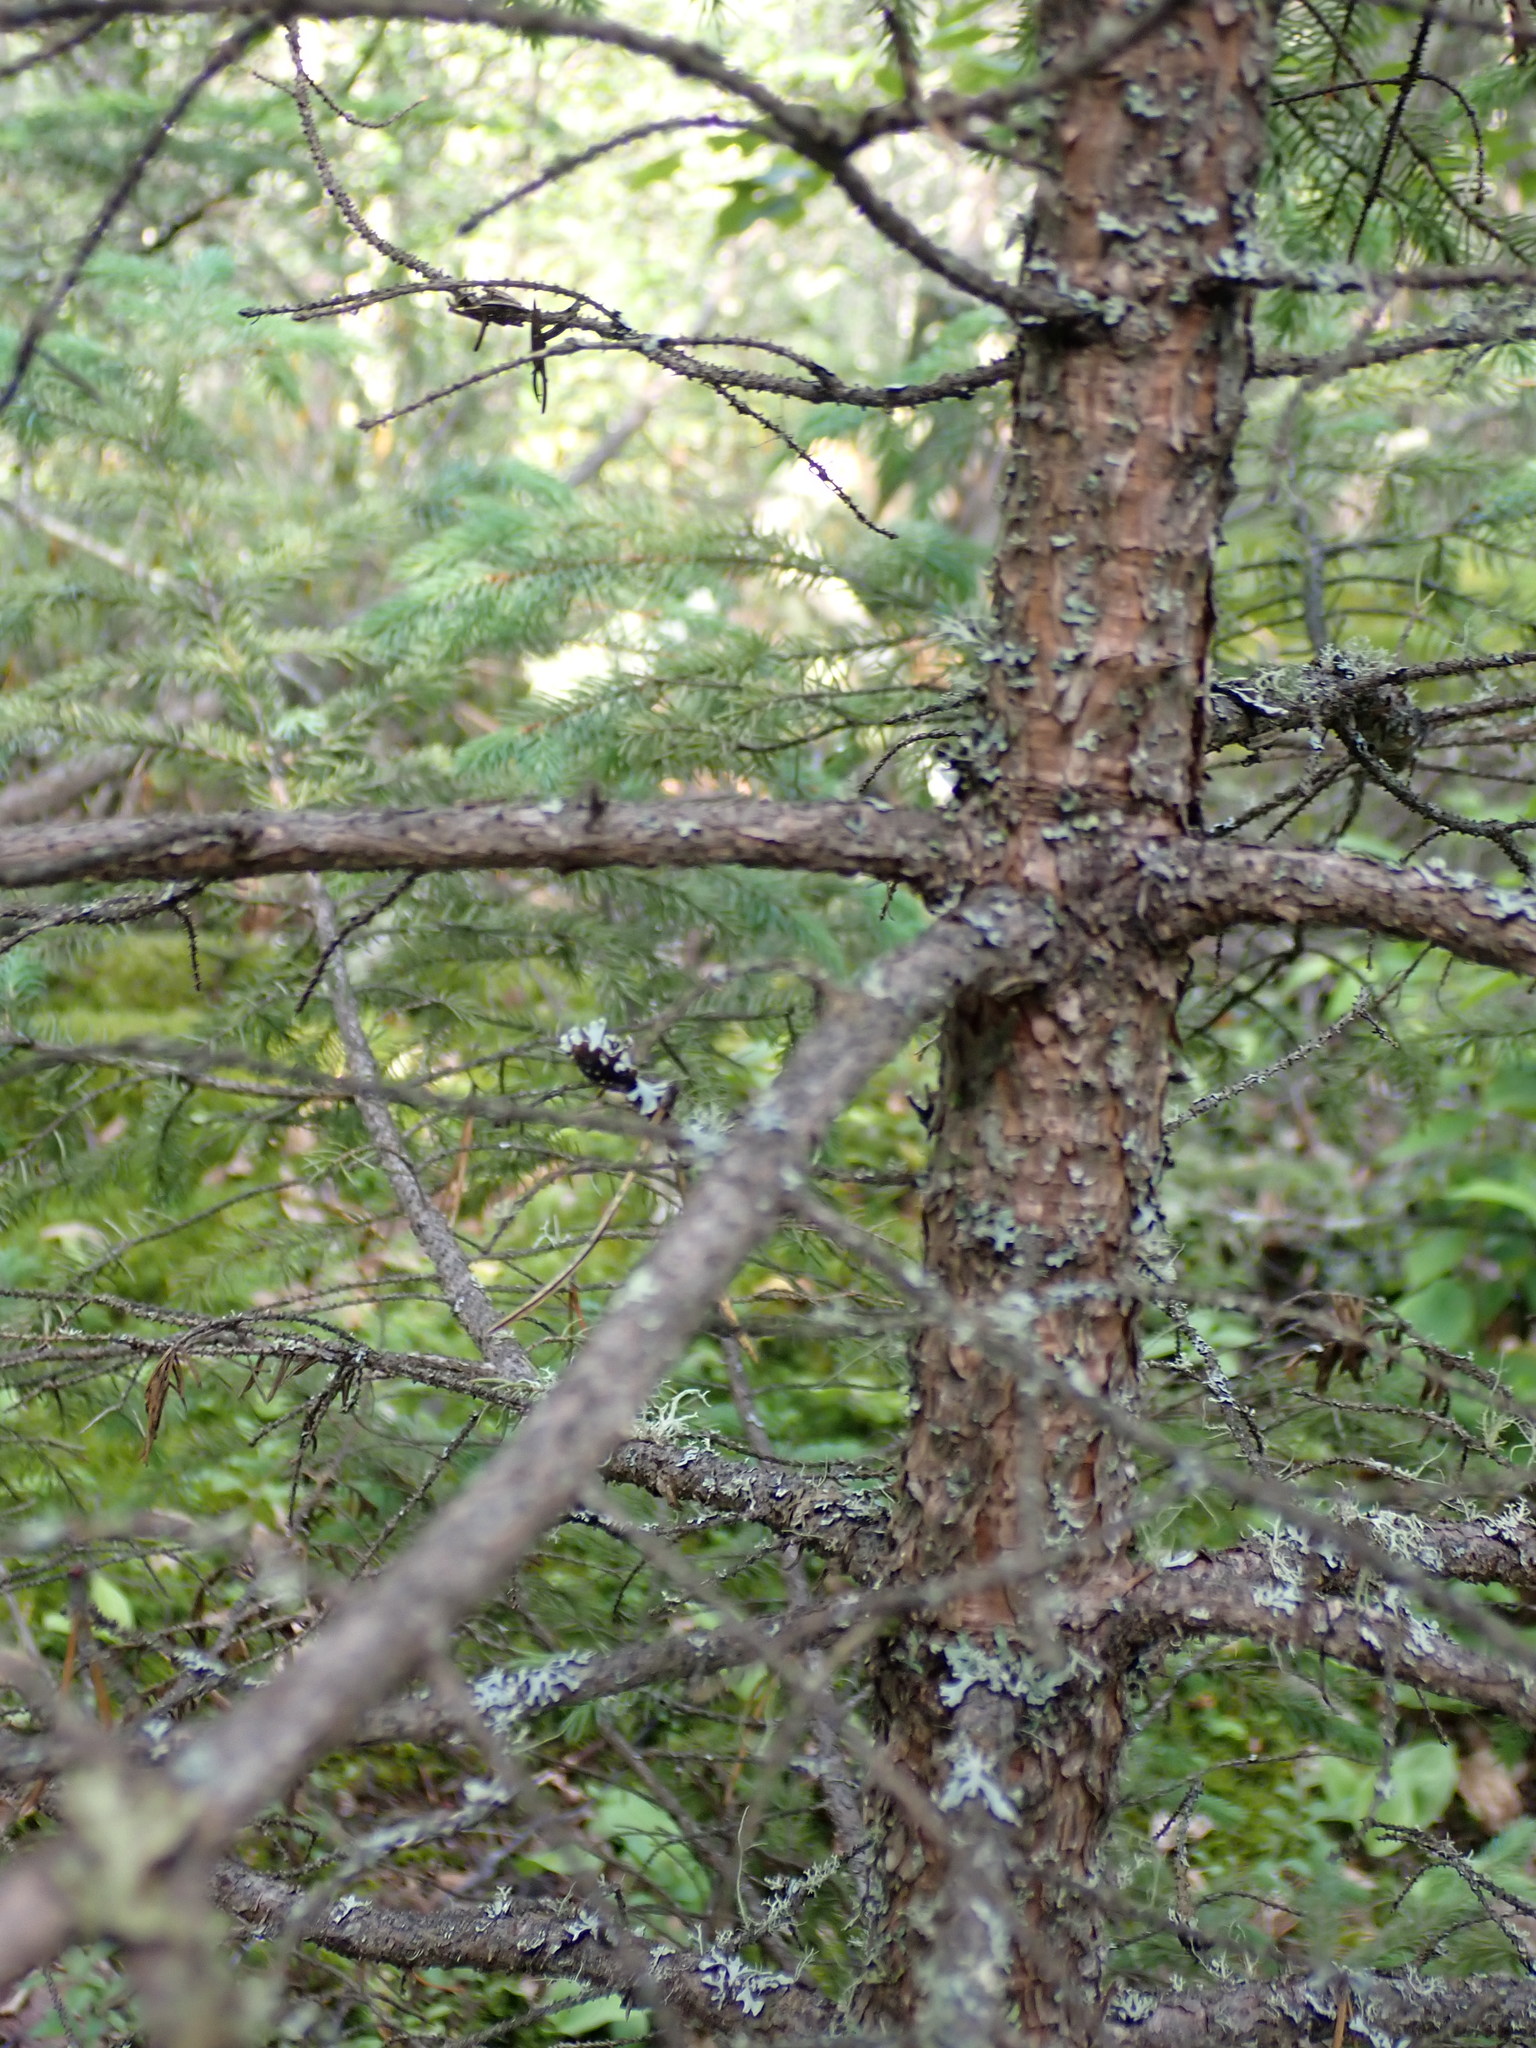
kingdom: Plantae
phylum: Tracheophyta
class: Pinopsida
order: Pinales
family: Pinaceae
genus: Picea
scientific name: Picea mariana
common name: Black spruce
